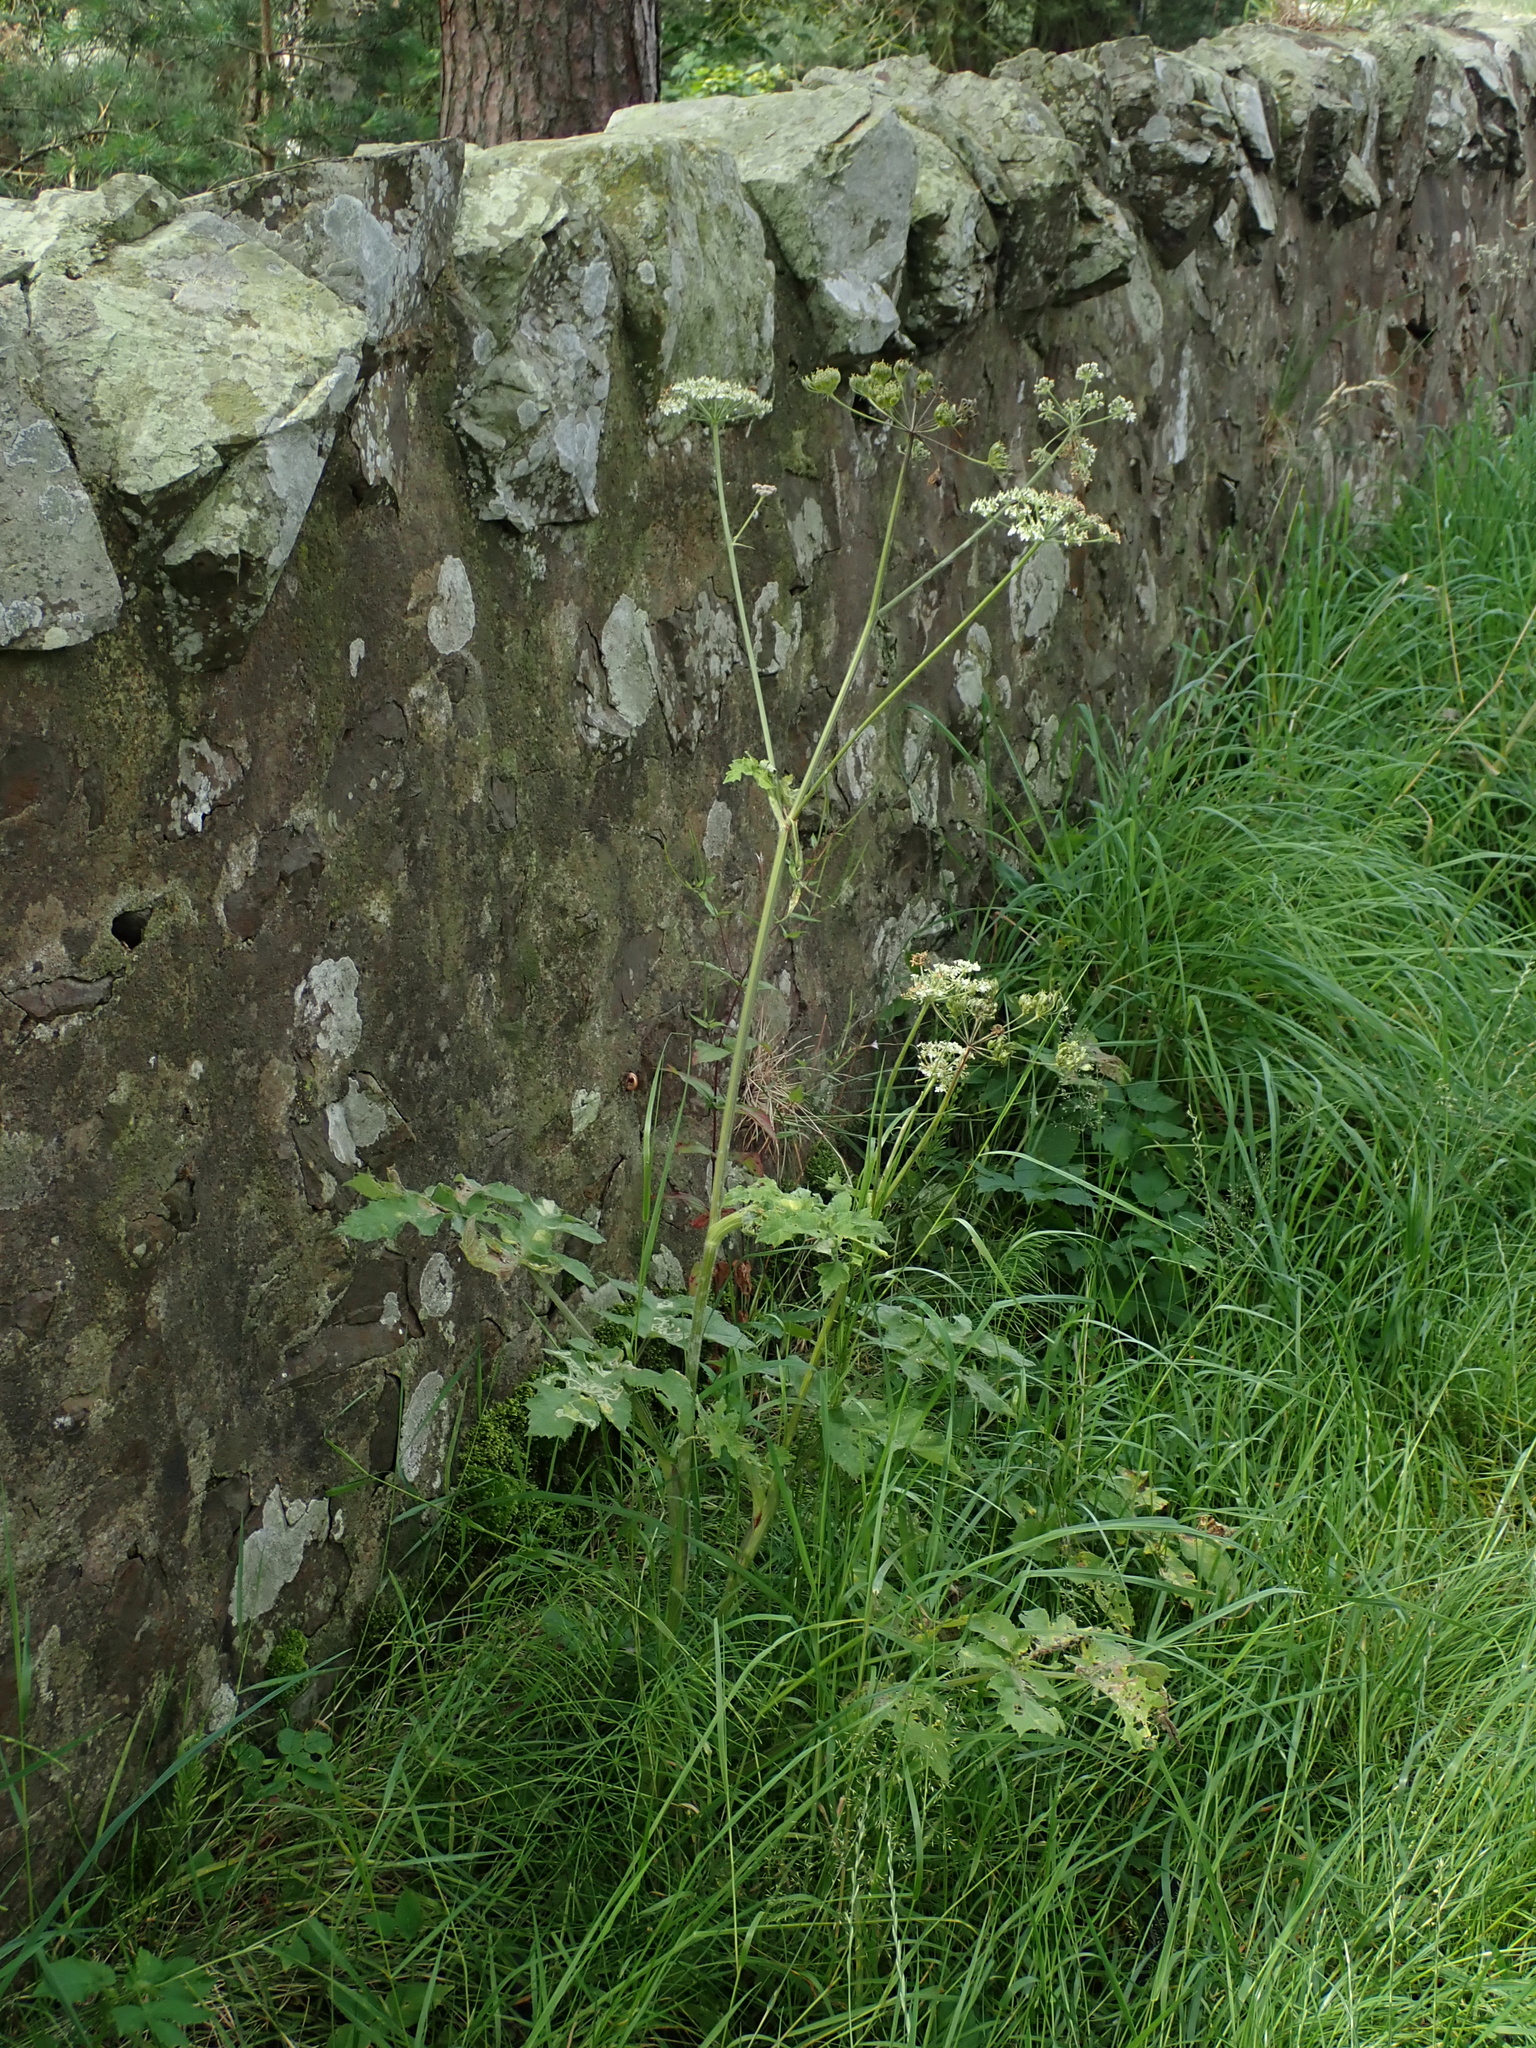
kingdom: Plantae
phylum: Tracheophyta
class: Magnoliopsida
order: Apiales
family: Apiaceae
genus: Heracleum
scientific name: Heracleum sphondylium
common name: Hogweed
